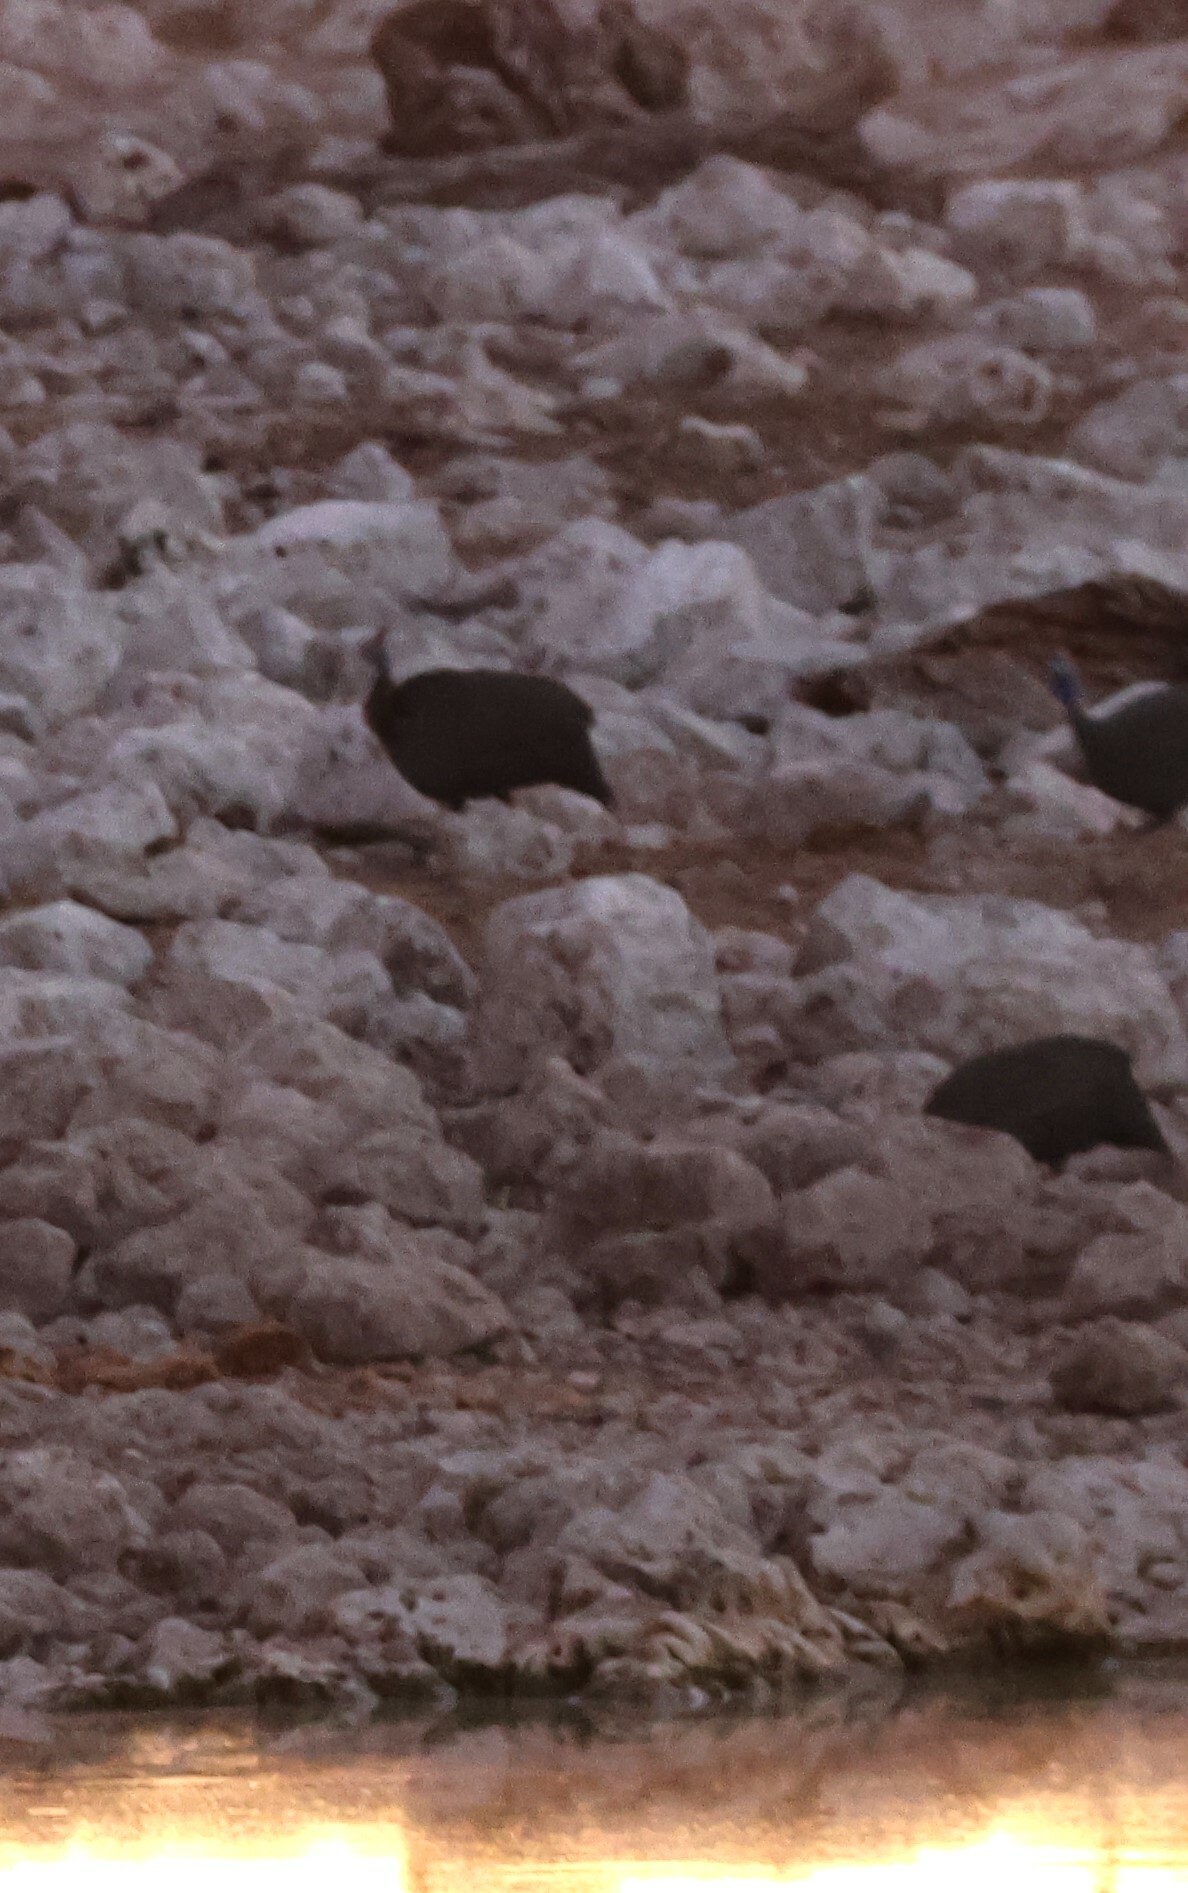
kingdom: Animalia
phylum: Chordata
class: Aves
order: Galliformes
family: Numididae
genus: Numida
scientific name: Numida meleagris
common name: Helmeted guineafowl
